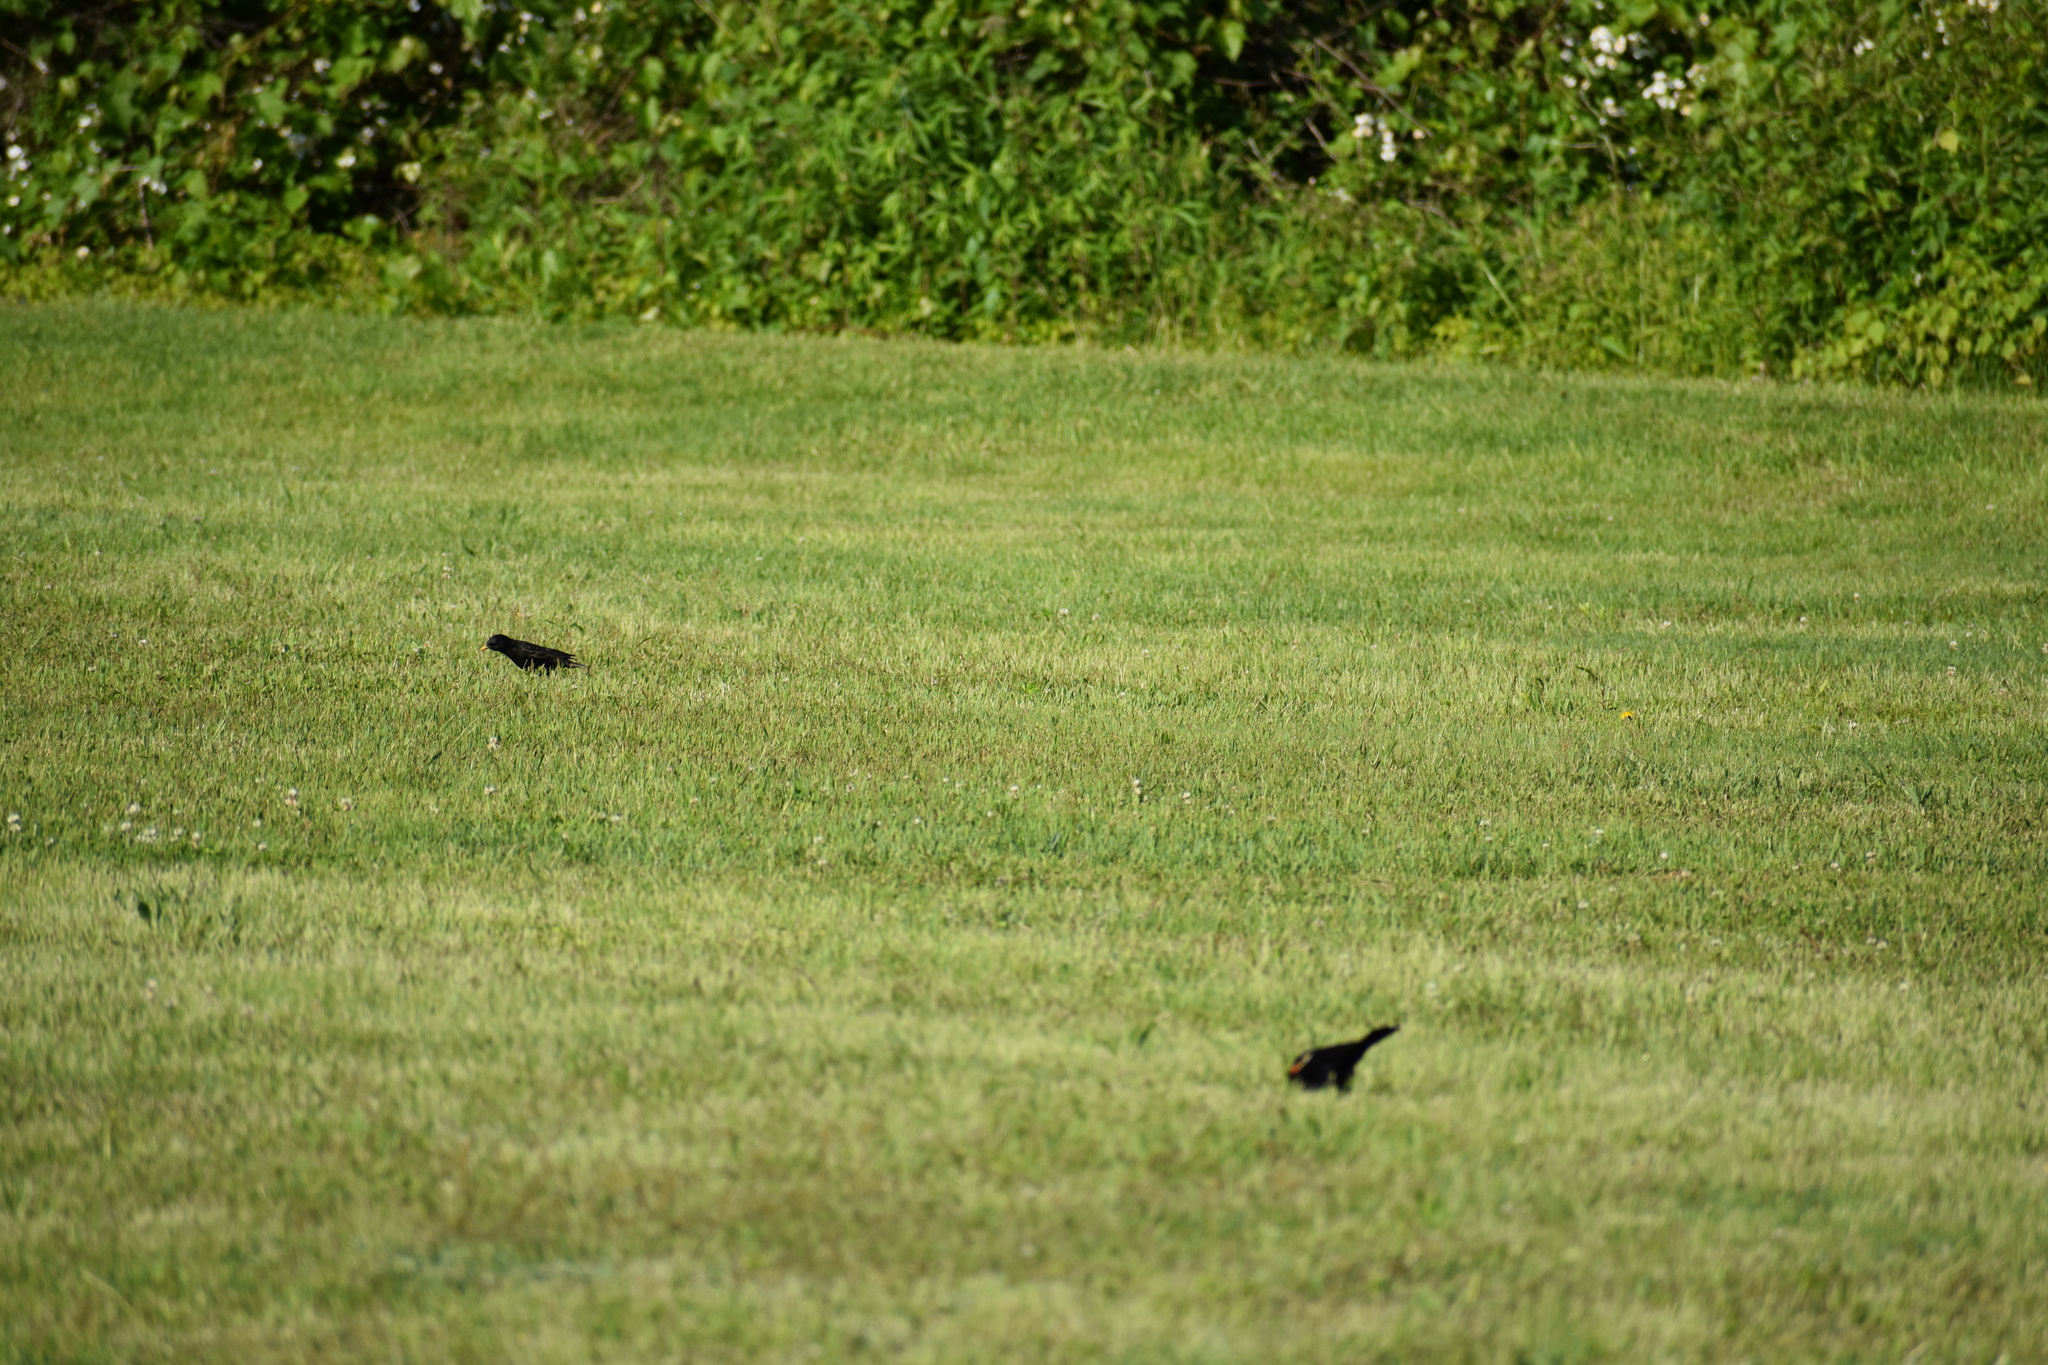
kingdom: Animalia
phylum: Chordata
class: Aves
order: Passeriformes
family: Icteridae
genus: Agelaius
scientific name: Agelaius phoeniceus
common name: Red-winged blackbird
